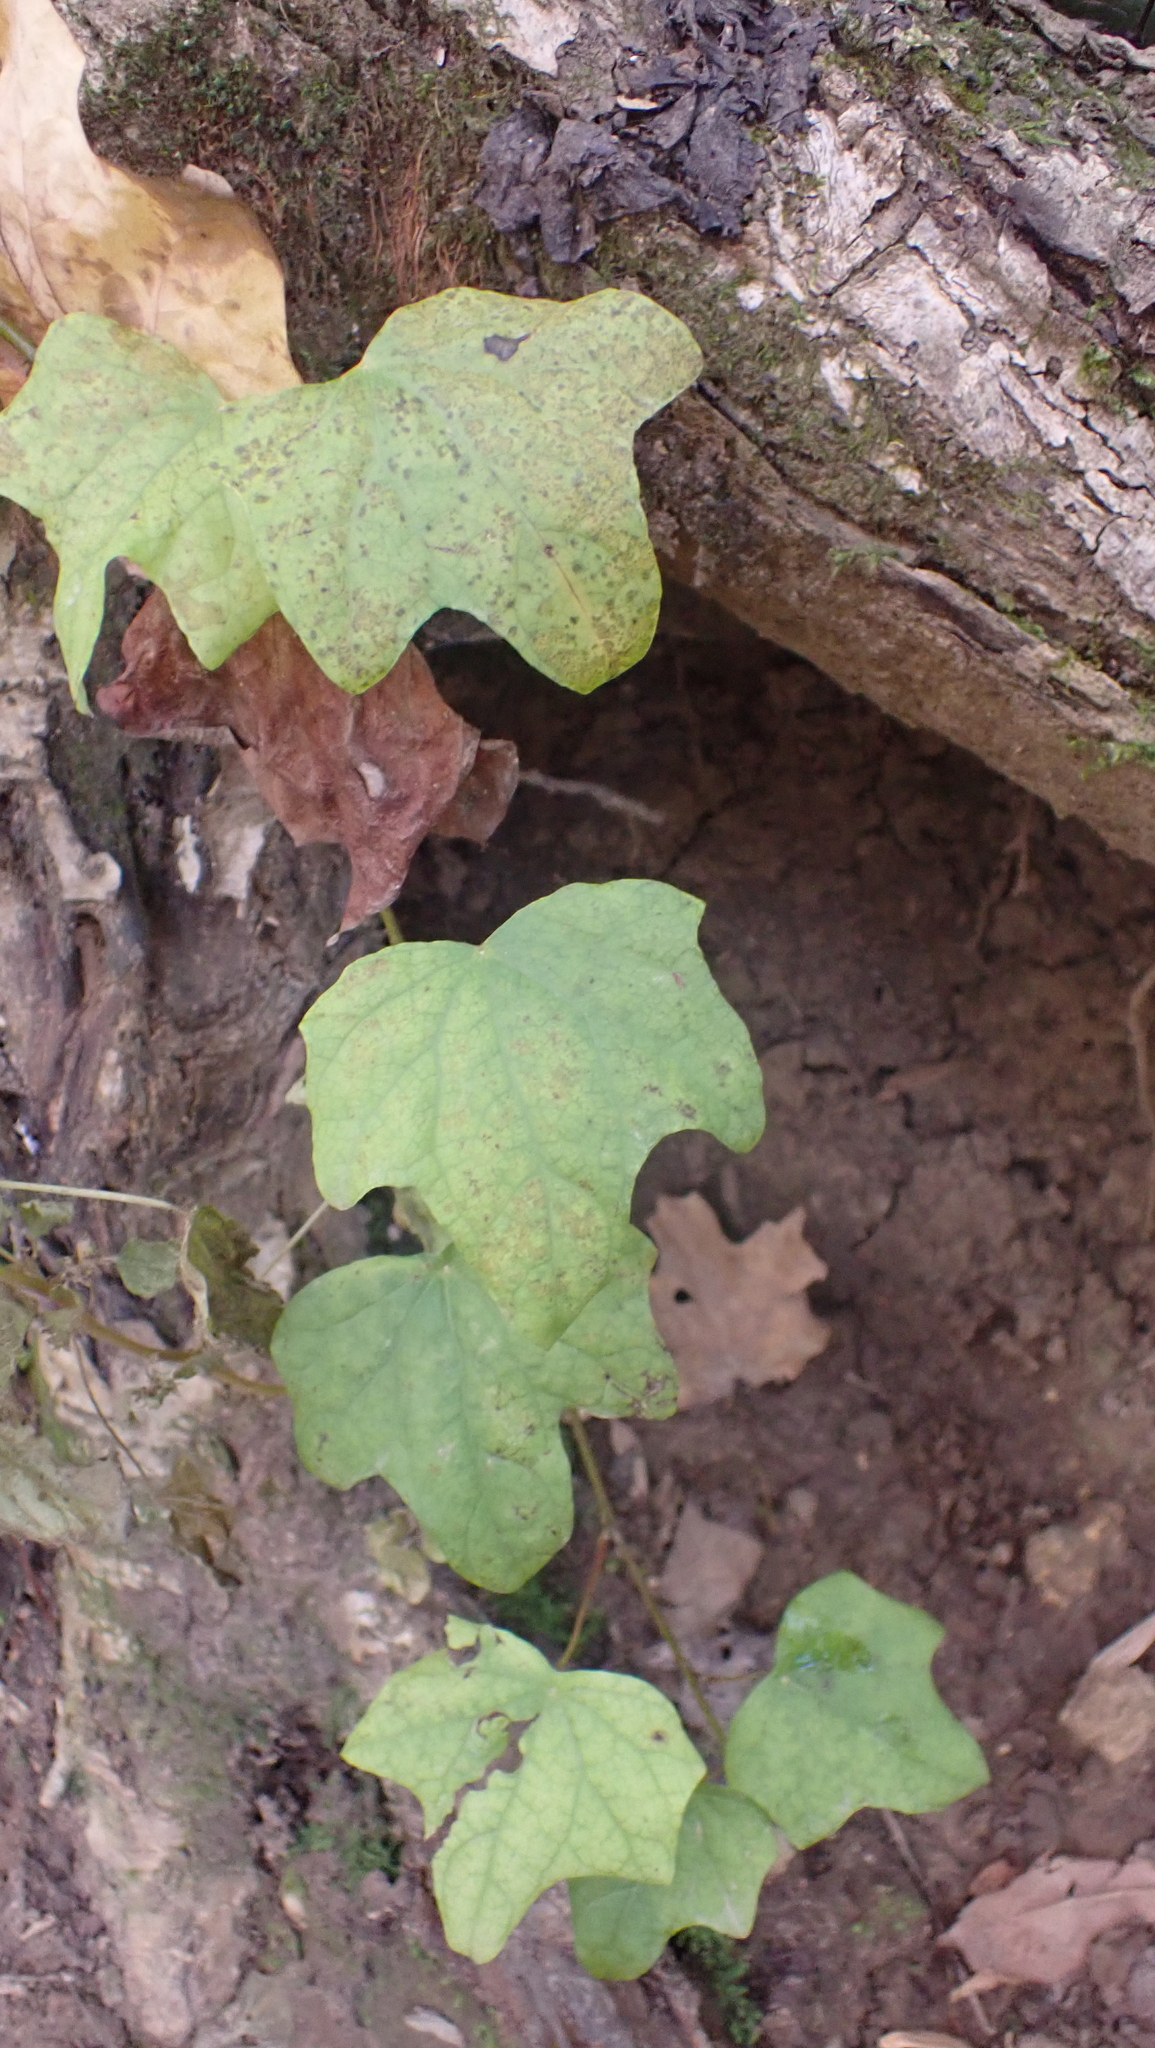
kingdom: Plantae
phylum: Tracheophyta
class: Magnoliopsida
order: Ranunculales
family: Menispermaceae
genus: Menispermum
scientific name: Menispermum canadense
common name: Moonseed
